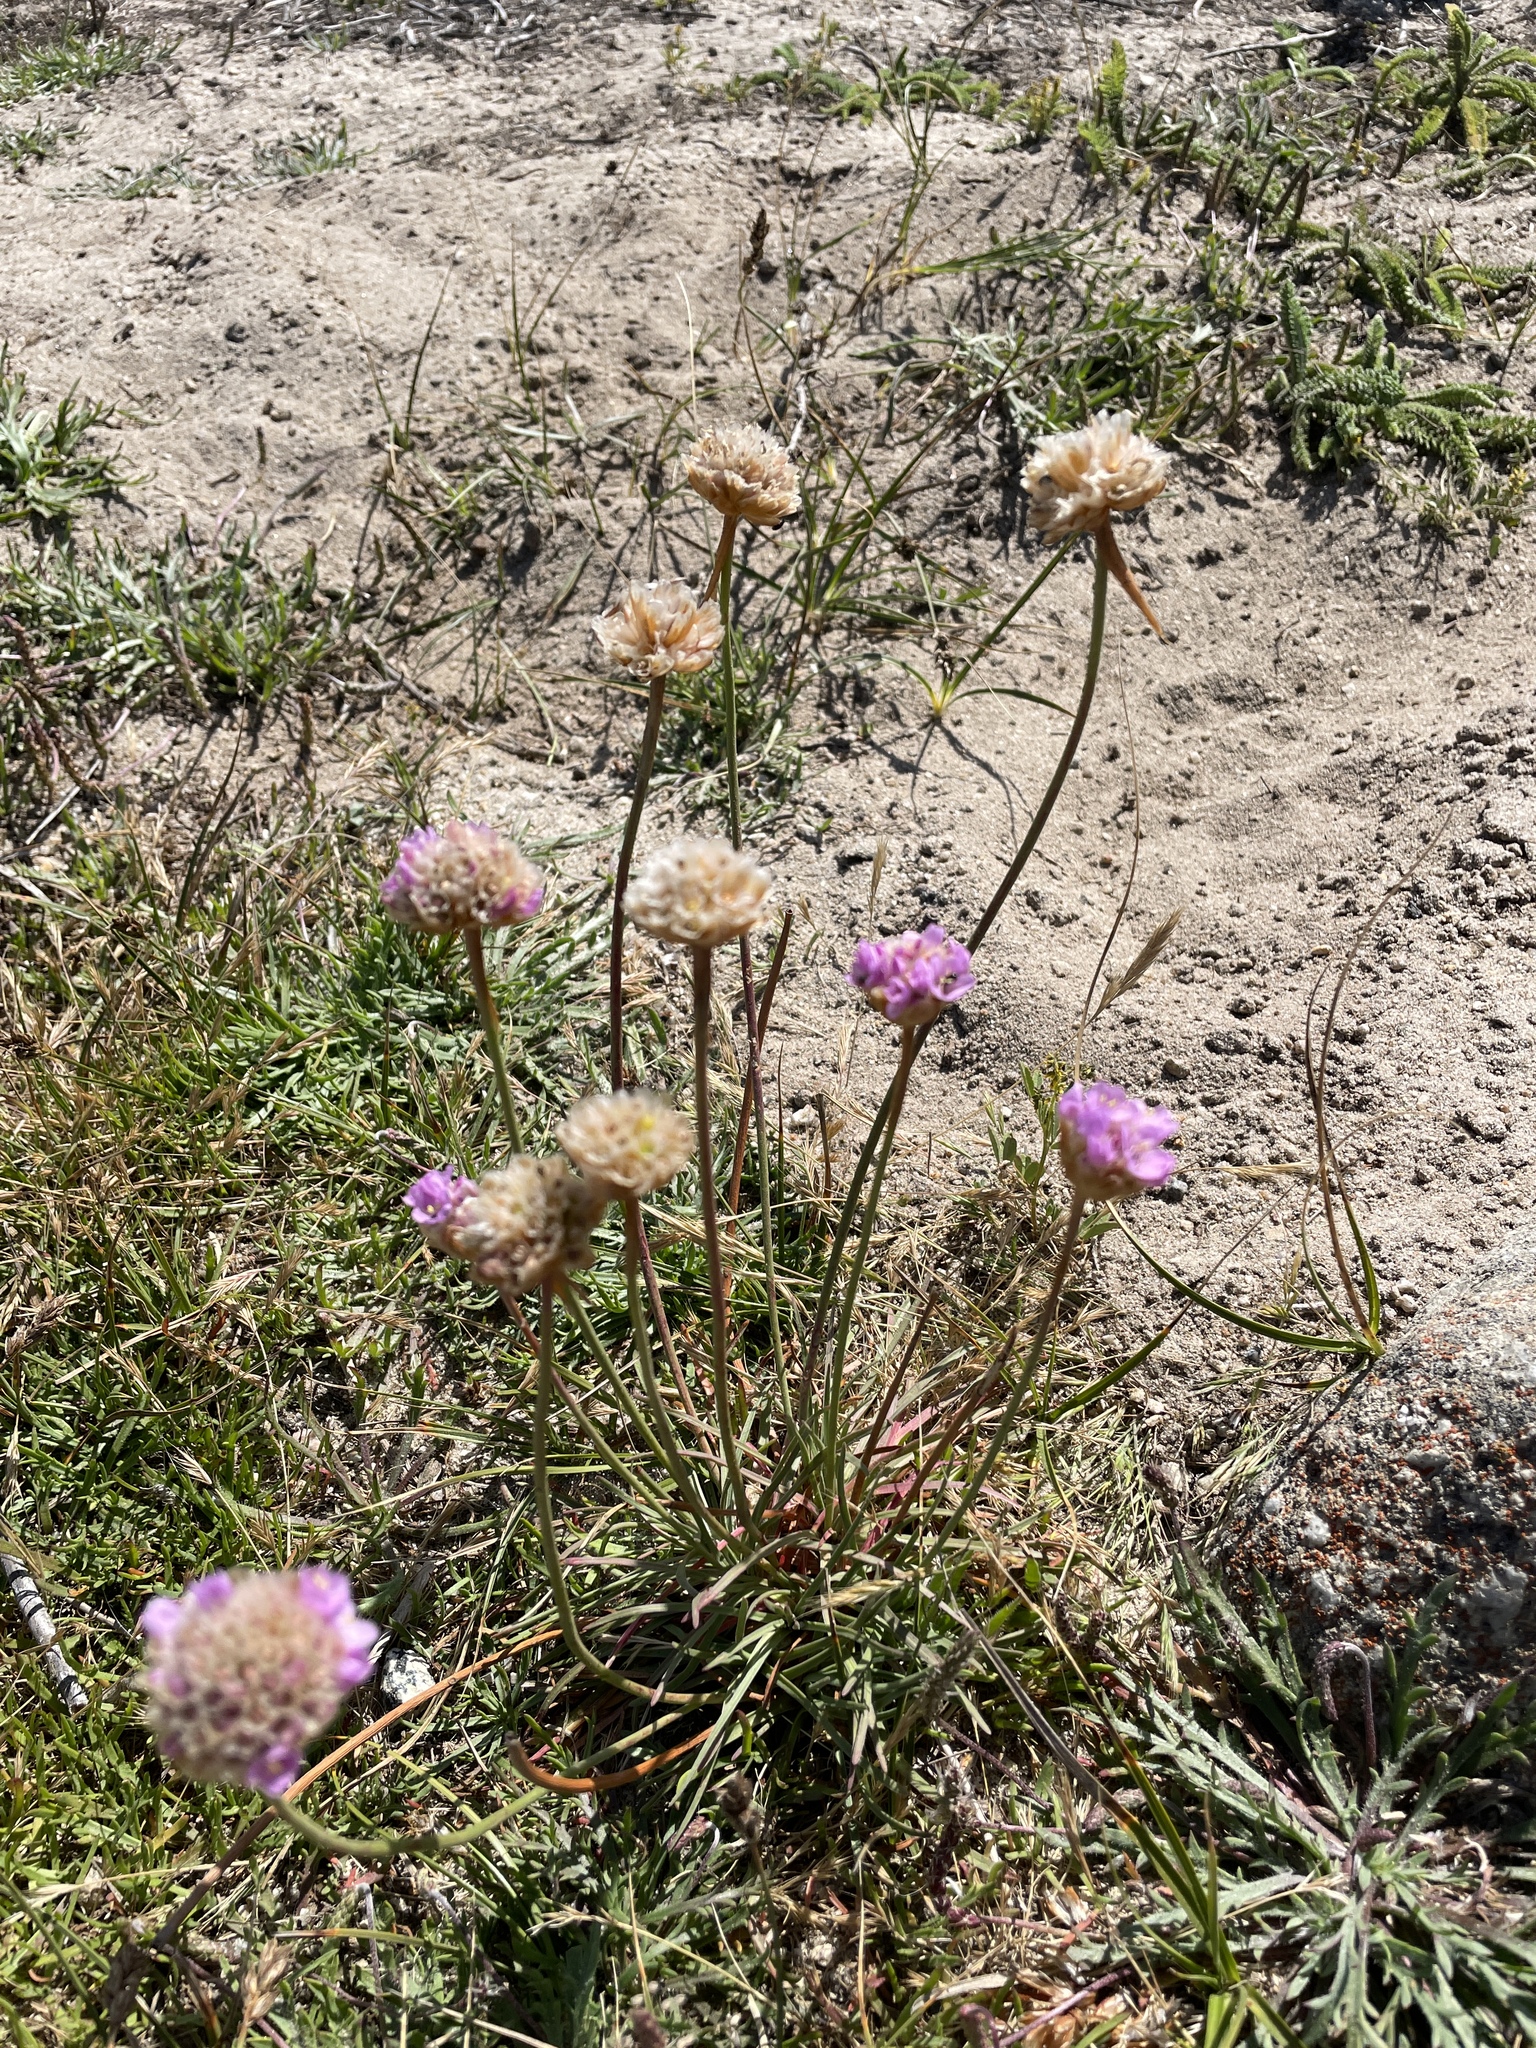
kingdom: Plantae
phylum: Tracheophyta
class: Magnoliopsida
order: Caryophyllales
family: Plumbaginaceae
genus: Armeria
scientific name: Armeria maritima
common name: Thrift
